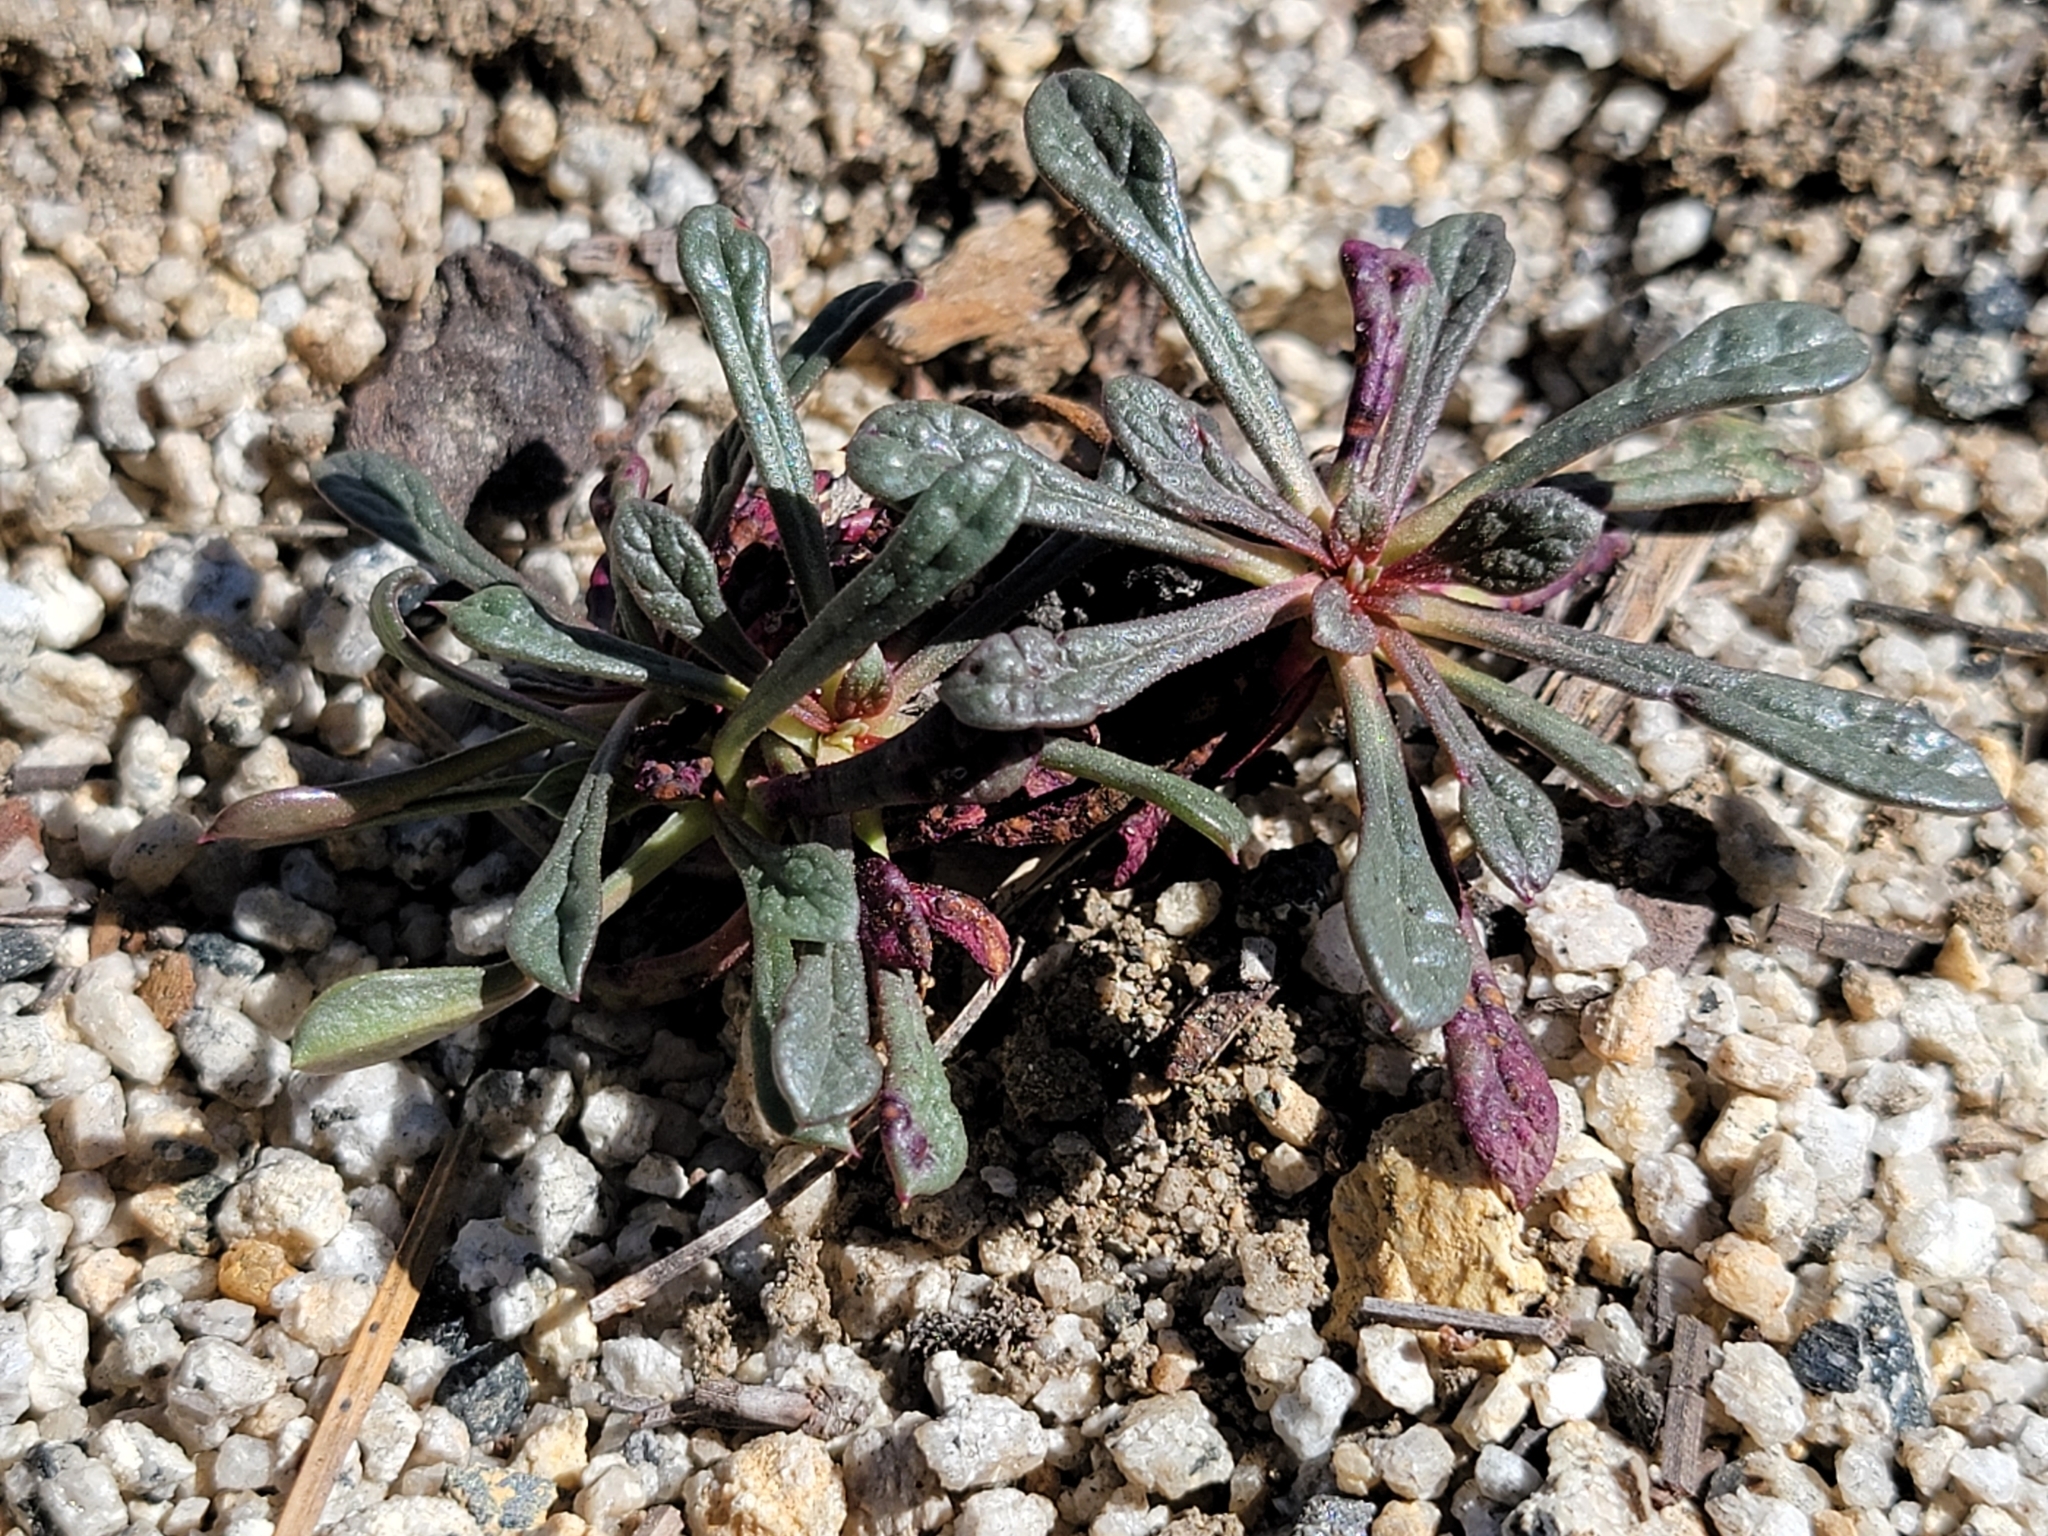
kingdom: Plantae
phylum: Tracheophyta
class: Magnoliopsida
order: Caryophyllales
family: Montiaceae
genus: Calyptridium
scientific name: Calyptridium monospermum
